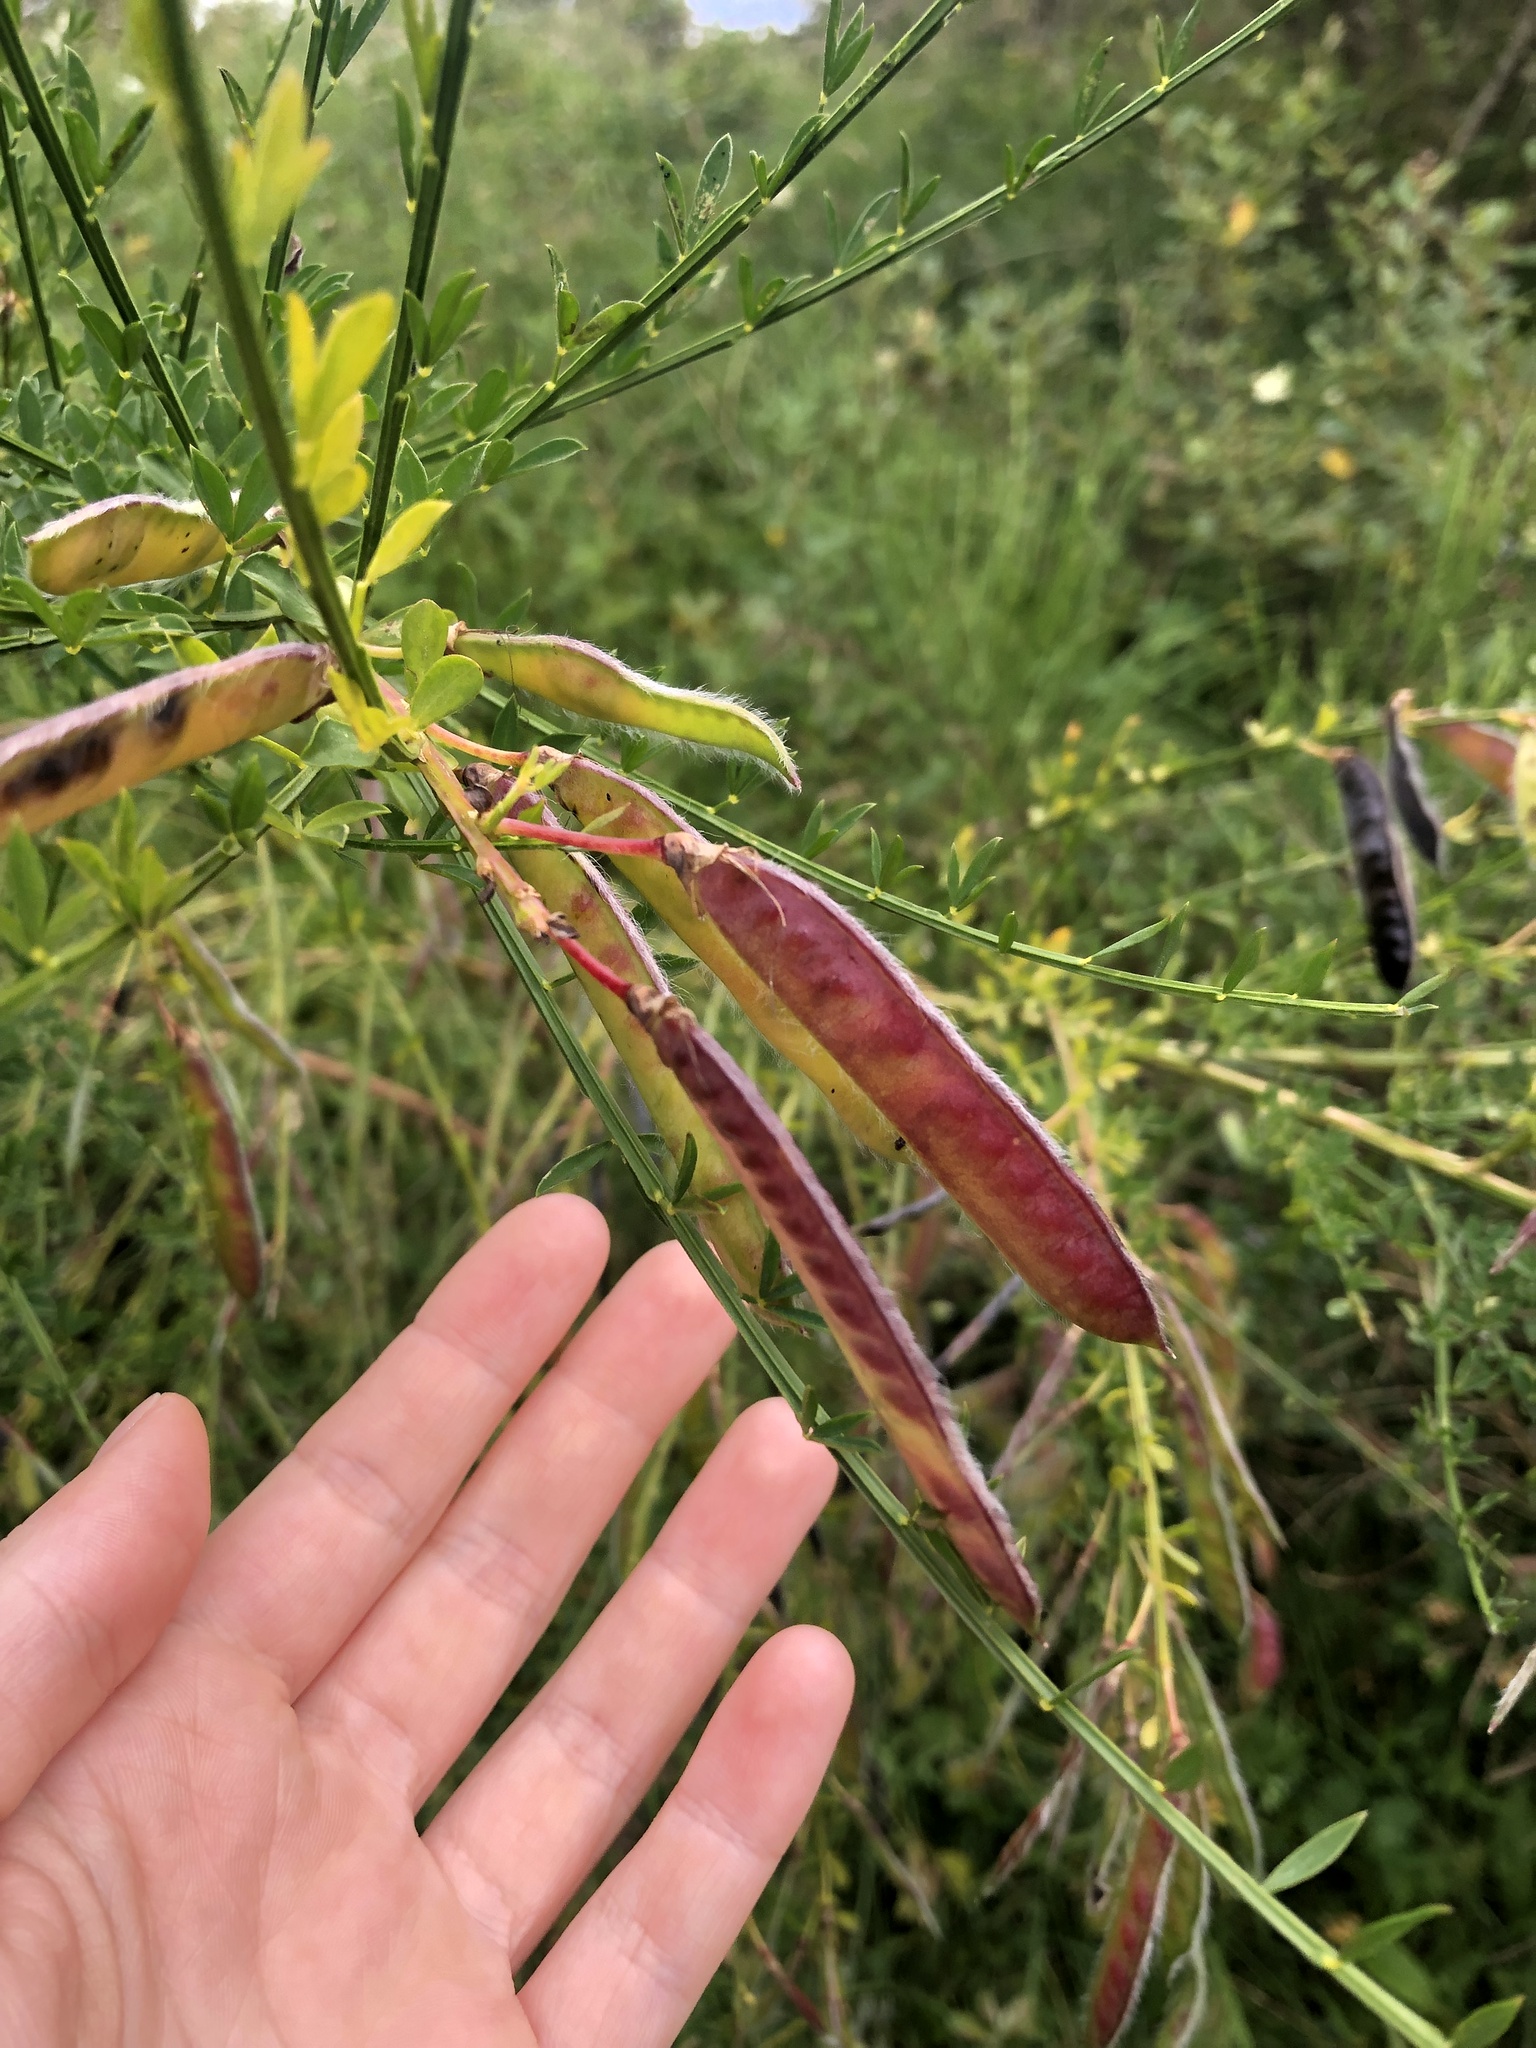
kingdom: Plantae
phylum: Tracheophyta
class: Magnoliopsida
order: Fabales
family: Fabaceae
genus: Cytisus
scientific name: Cytisus scoparius
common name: Scotch broom
